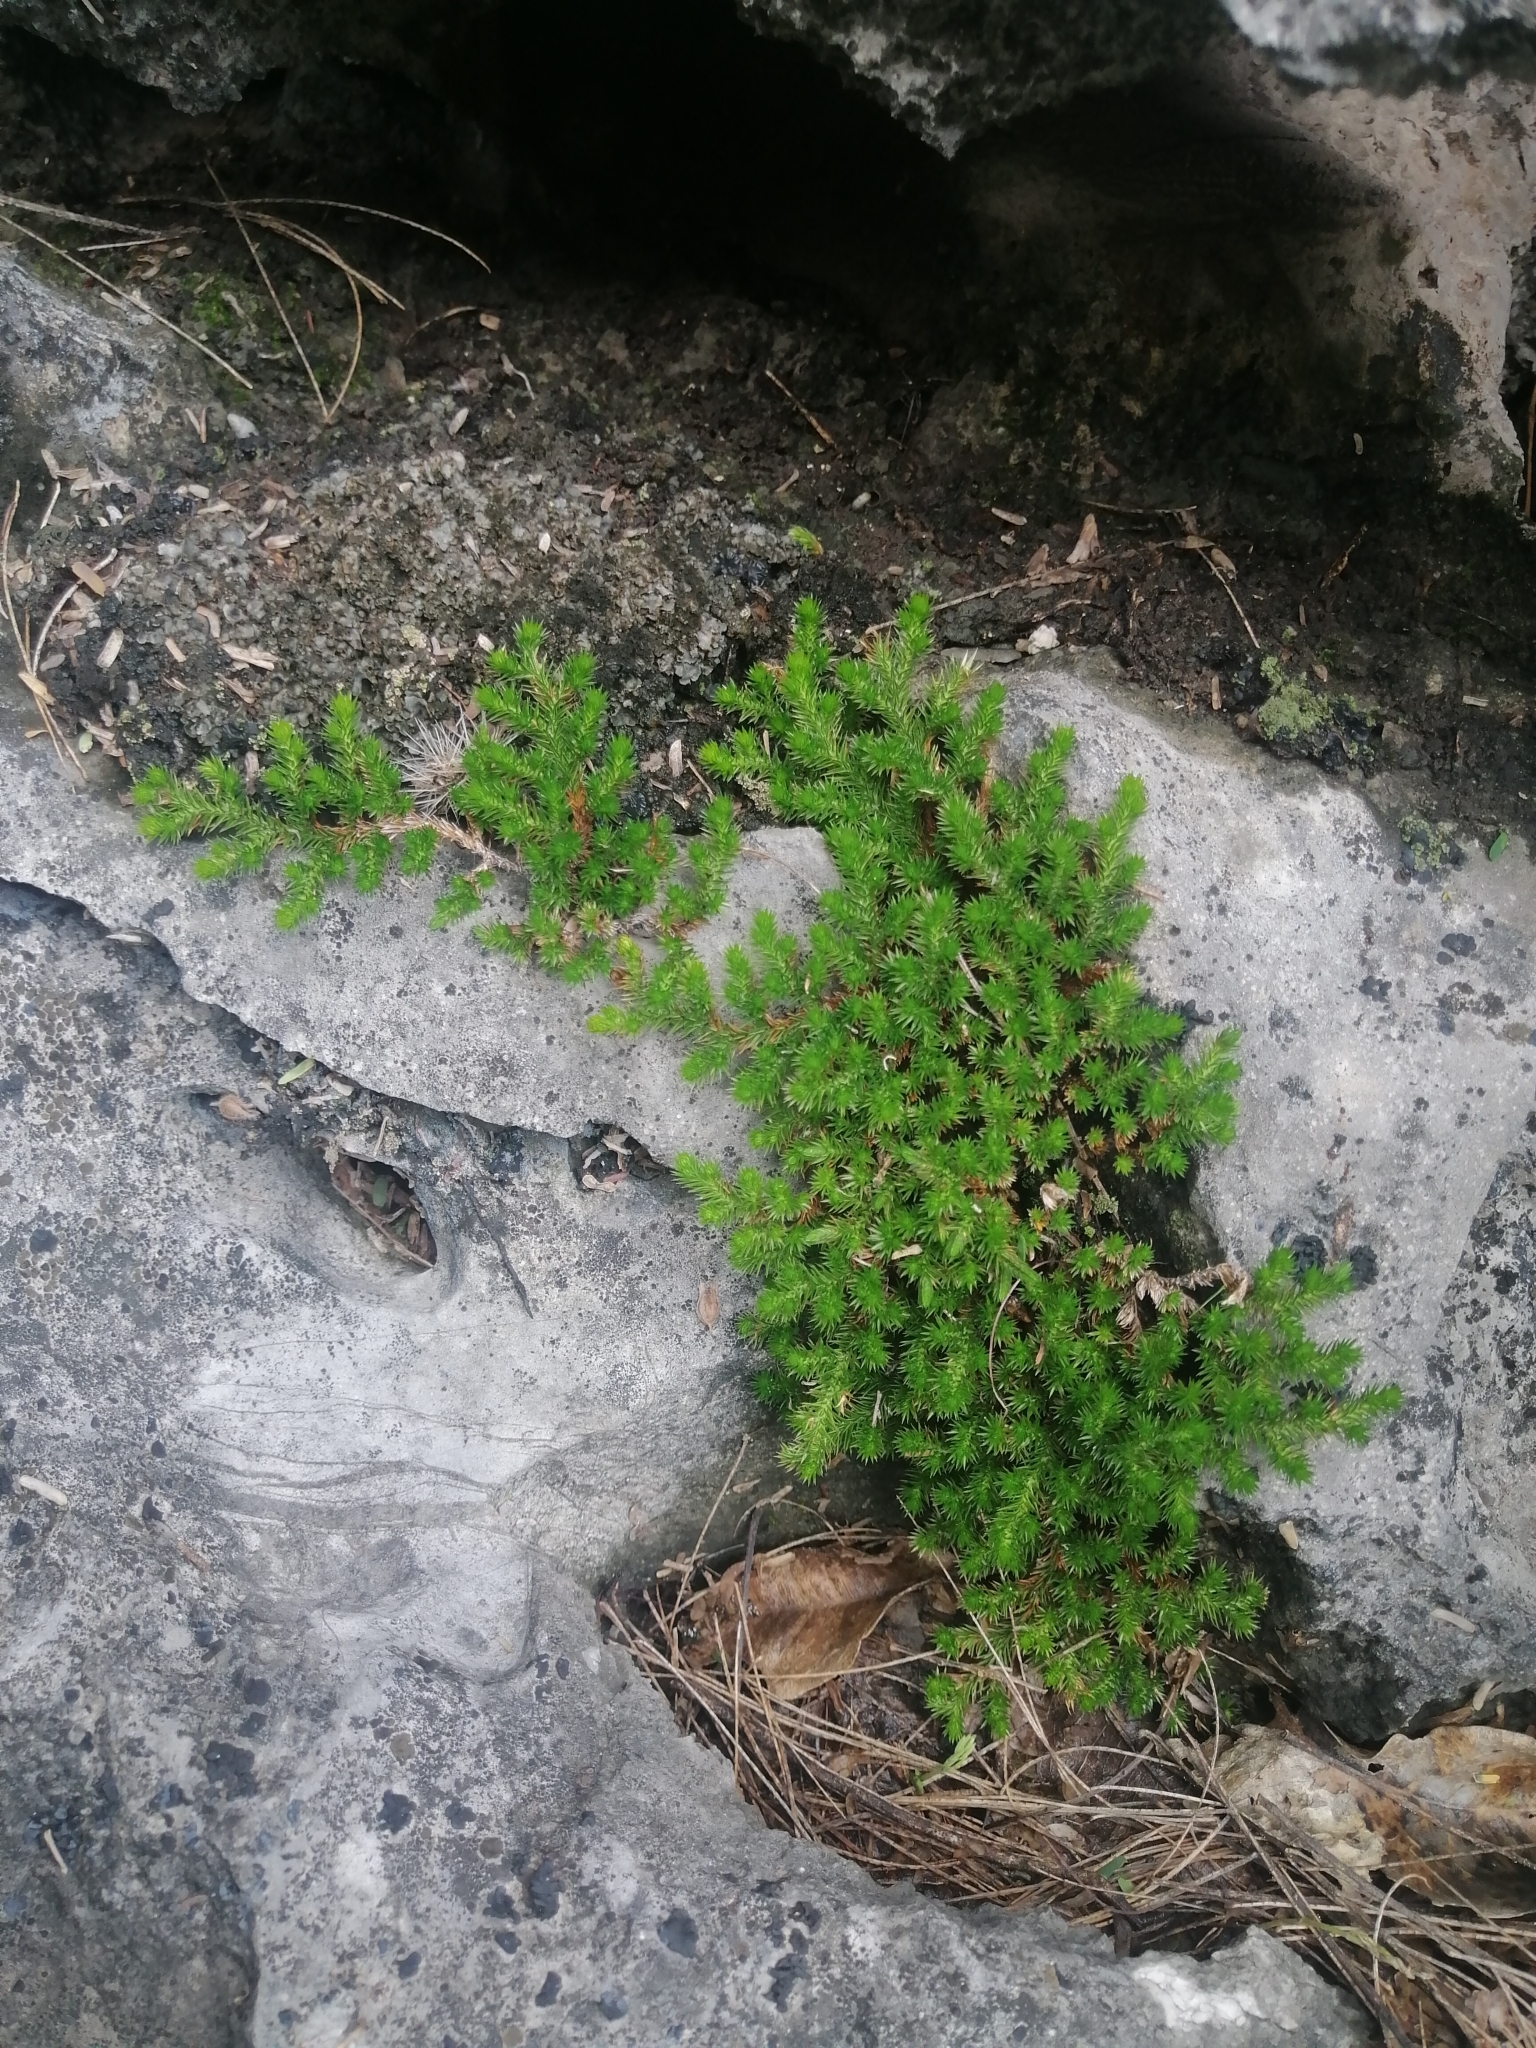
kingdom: Plantae
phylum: Tracheophyta
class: Lycopodiopsida
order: Selaginellales
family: Selaginellaceae
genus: Selaginella
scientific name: Selaginella wrightii
